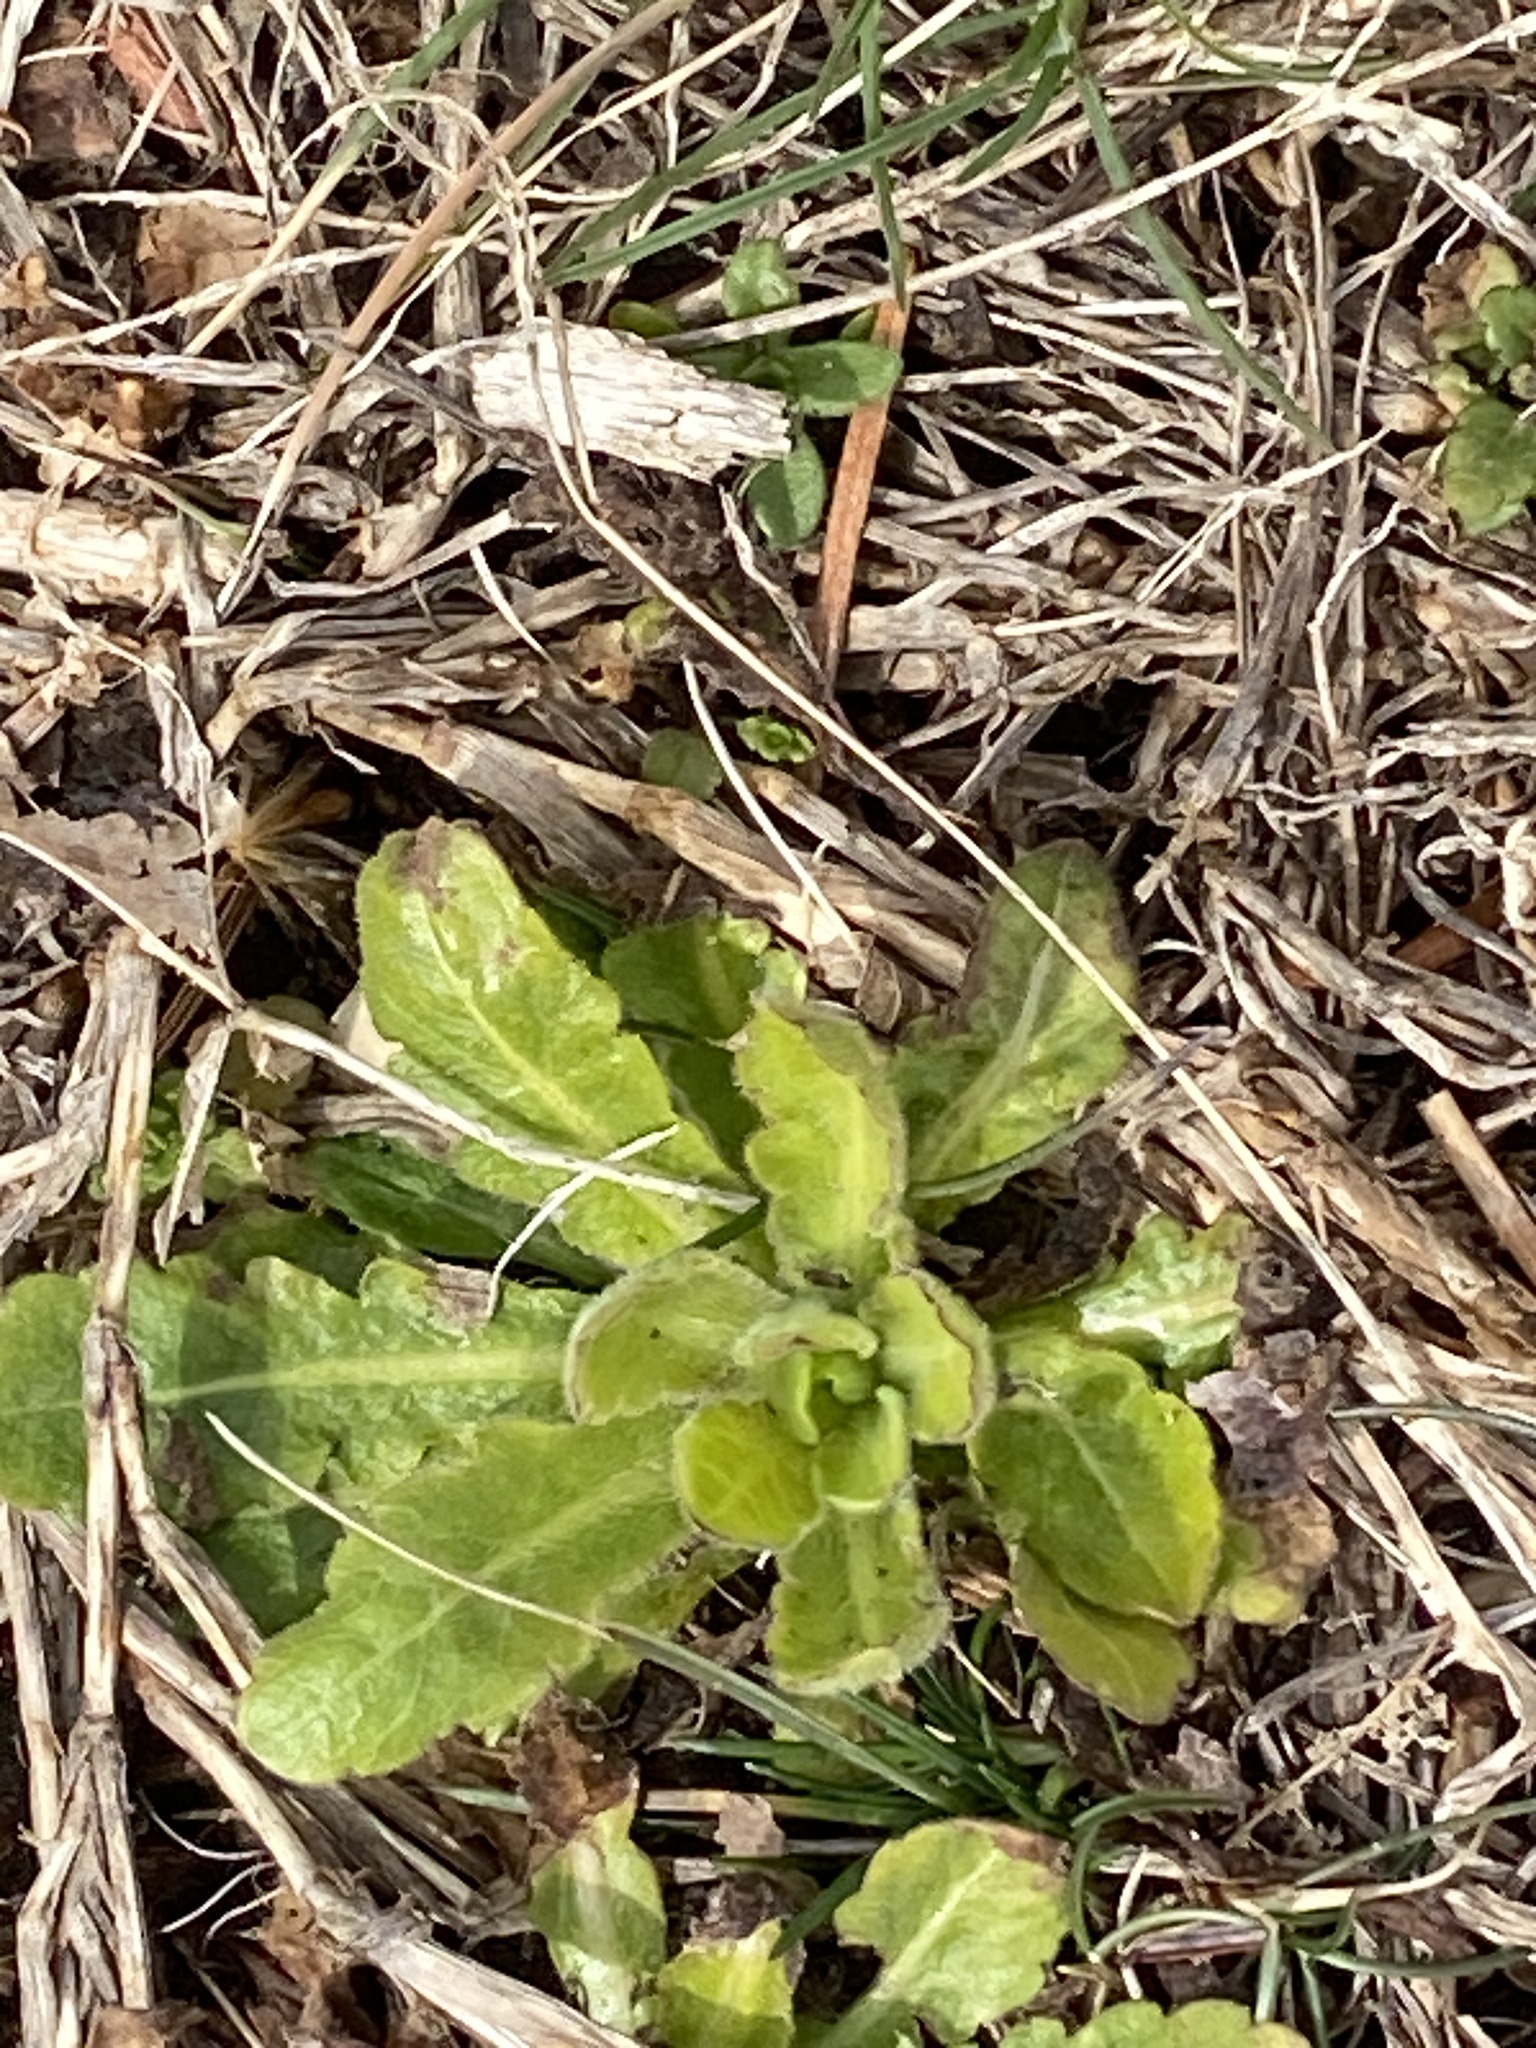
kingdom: Plantae
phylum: Tracheophyta
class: Magnoliopsida
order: Asterales
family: Asteraceae
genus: Hypochaeris
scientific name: Hypochaeris radicata
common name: Flatweed
